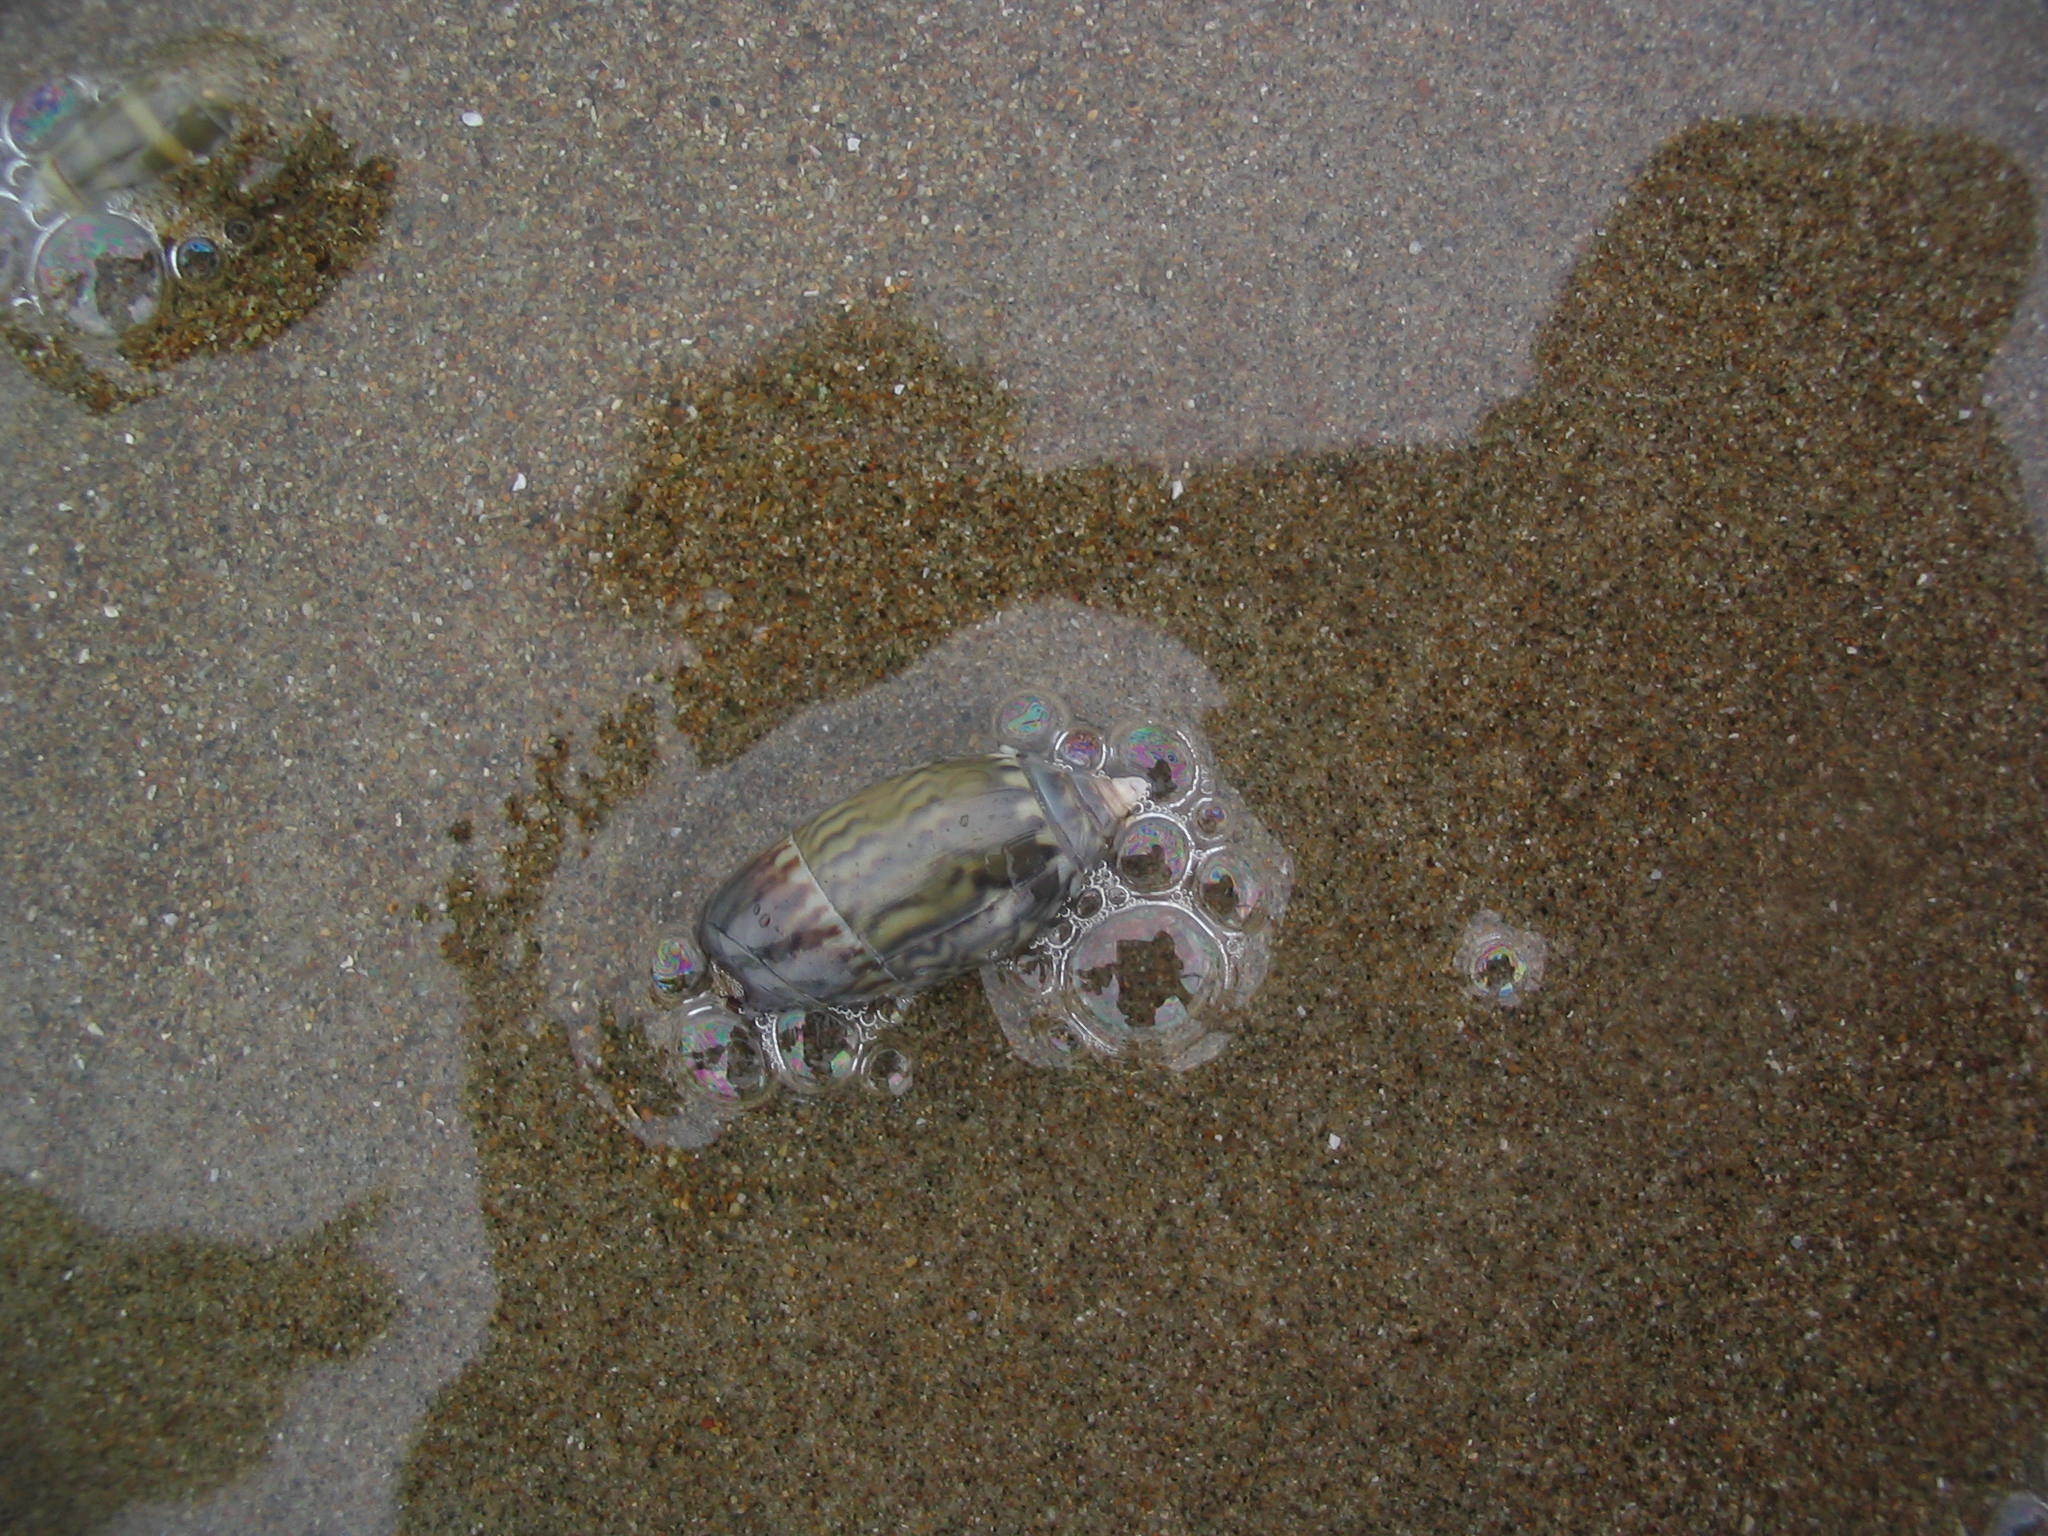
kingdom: Animalia
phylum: Mollusca
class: Gastropoda
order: Neogastropoda
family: Olividae
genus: Oliva
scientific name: Oliva undatella
